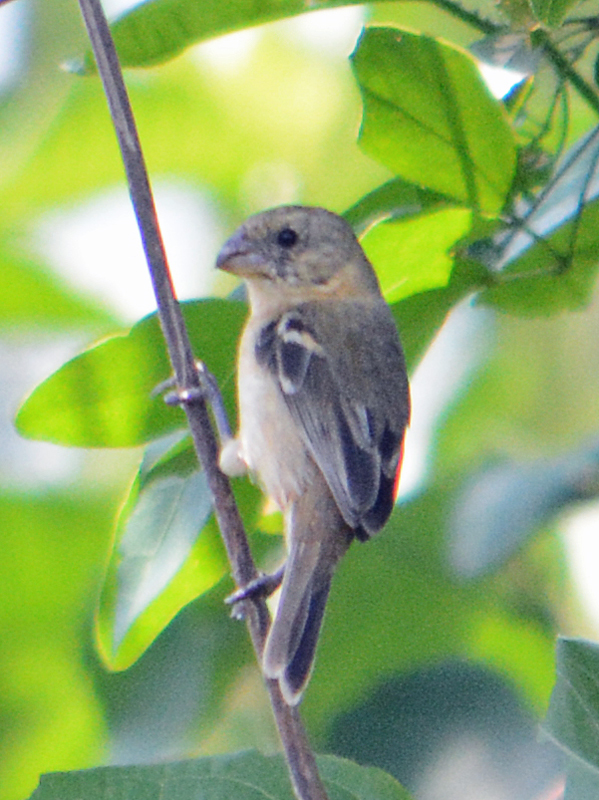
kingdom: Animalia
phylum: Chordata
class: Aves
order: Passeriformes
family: Thraupidae
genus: Sporophila
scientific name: Sporophila morelleti
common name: Morelet's seedeater
